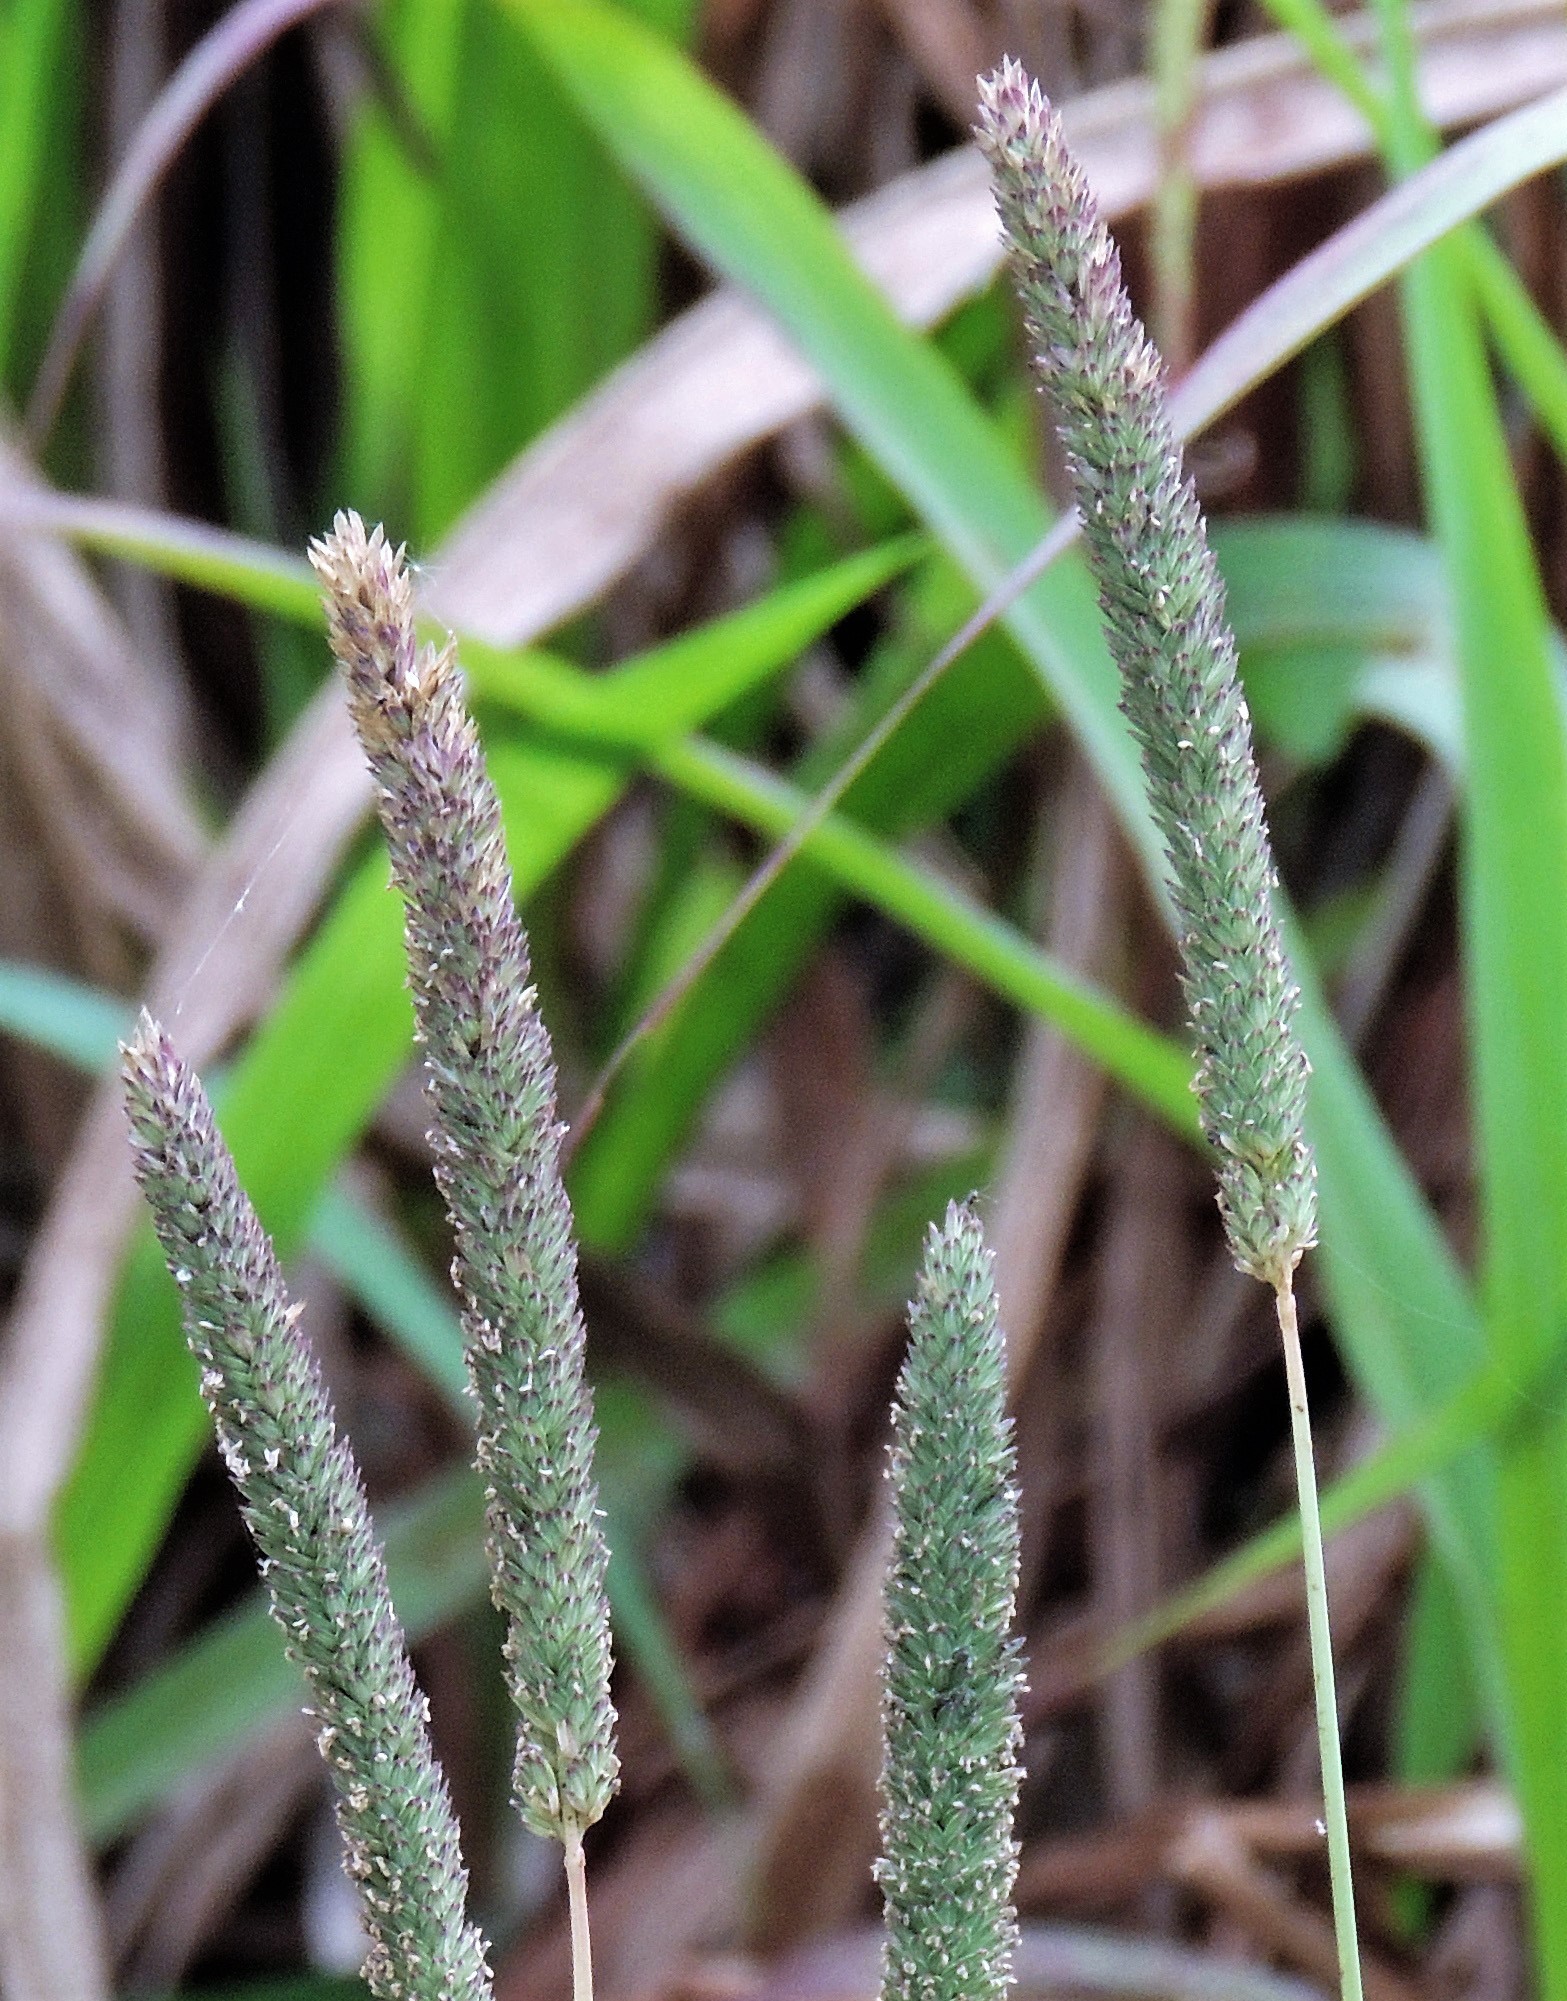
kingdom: Plantae
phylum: Tracheophyta
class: Liliopsida
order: Poales
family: Poaceae
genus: Phalaris
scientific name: Phalaris angusta
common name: Narrow canary grass
